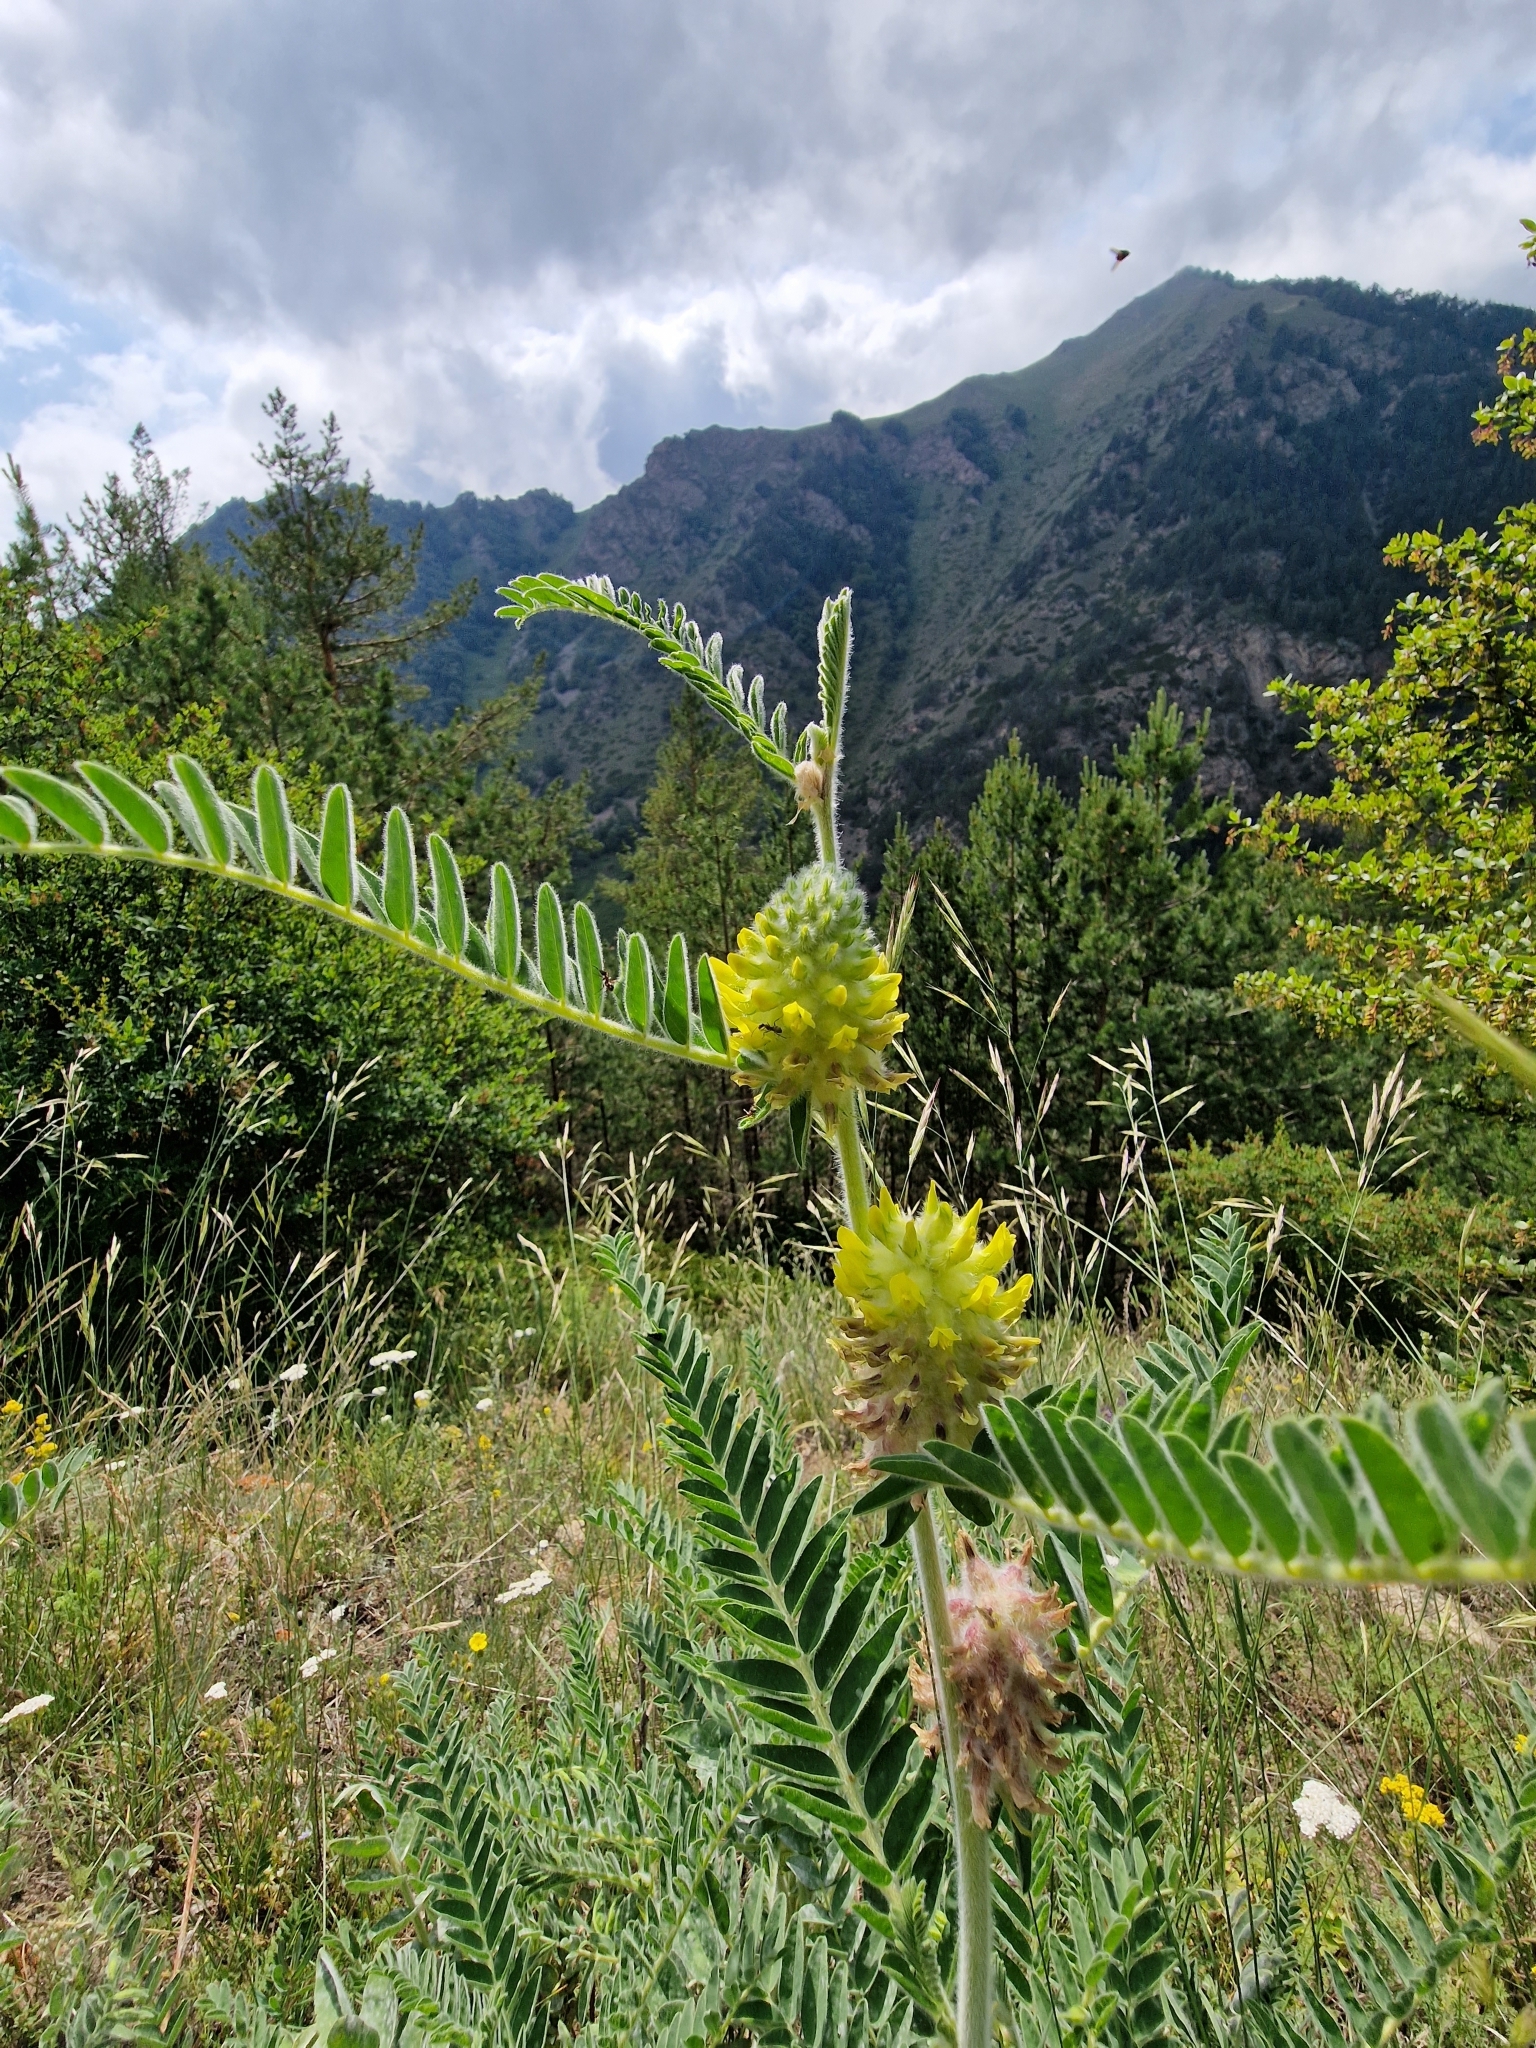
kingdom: Plantae
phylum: Tracheophyta
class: Magnoliopsida
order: Fabales
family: Fabaceae
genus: Astragalus
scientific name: Astragalus alopecurus
